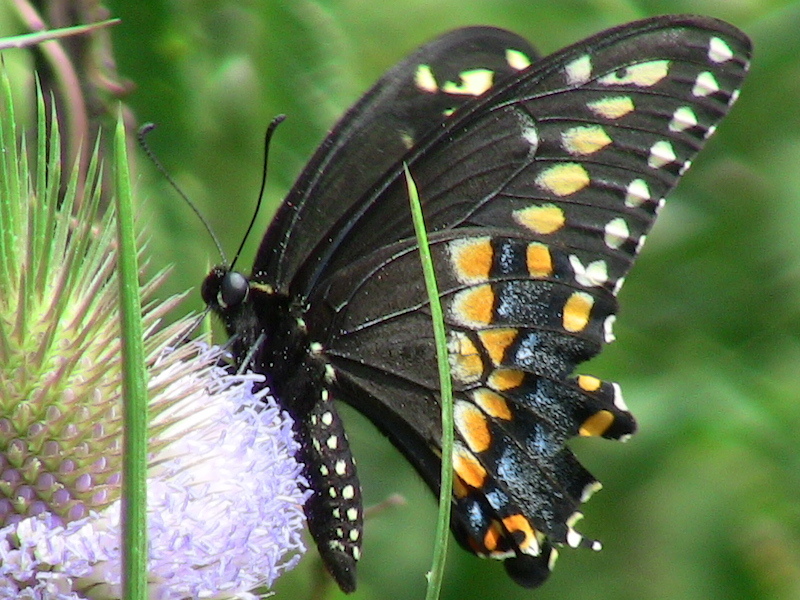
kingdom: Animalia
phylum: Arthropoda
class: Insecta
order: Lepidoptera
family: Papilionidae
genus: Papilio
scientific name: Papilio polyxenes
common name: Black swallowtail
